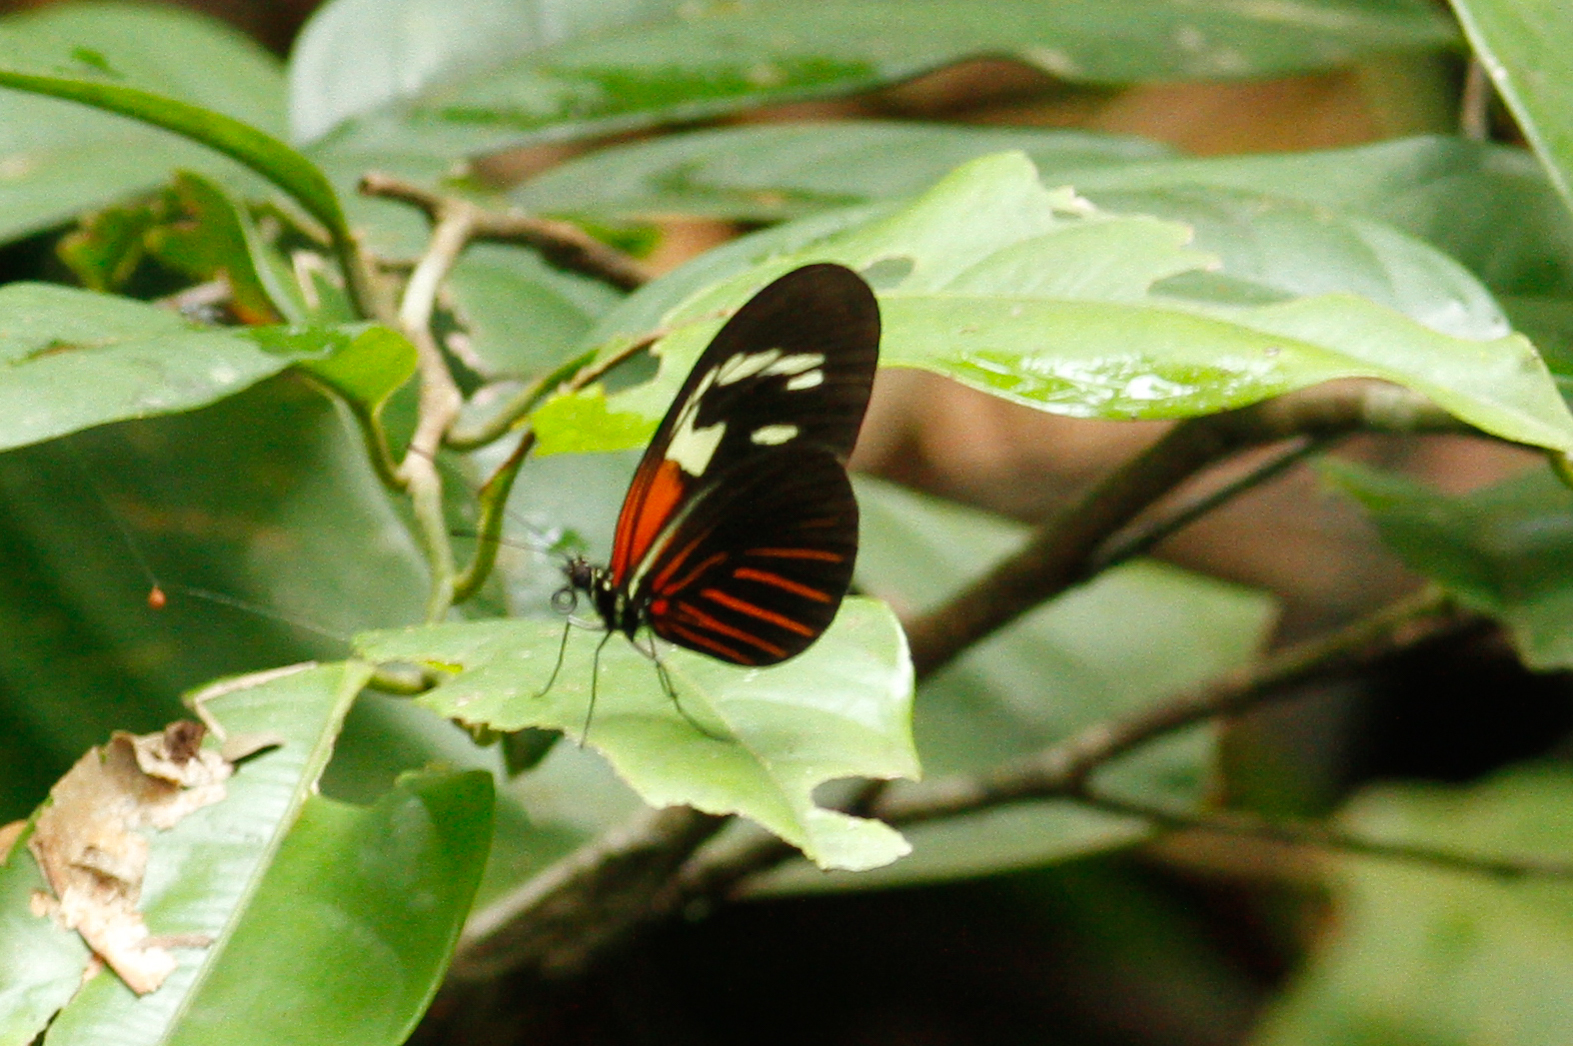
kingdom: Animalia
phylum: Arthropoda
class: Insecta
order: Lepidoptera
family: Nymphalidae
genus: Heliconius
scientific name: Heliconius erato
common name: Common patch longwing
